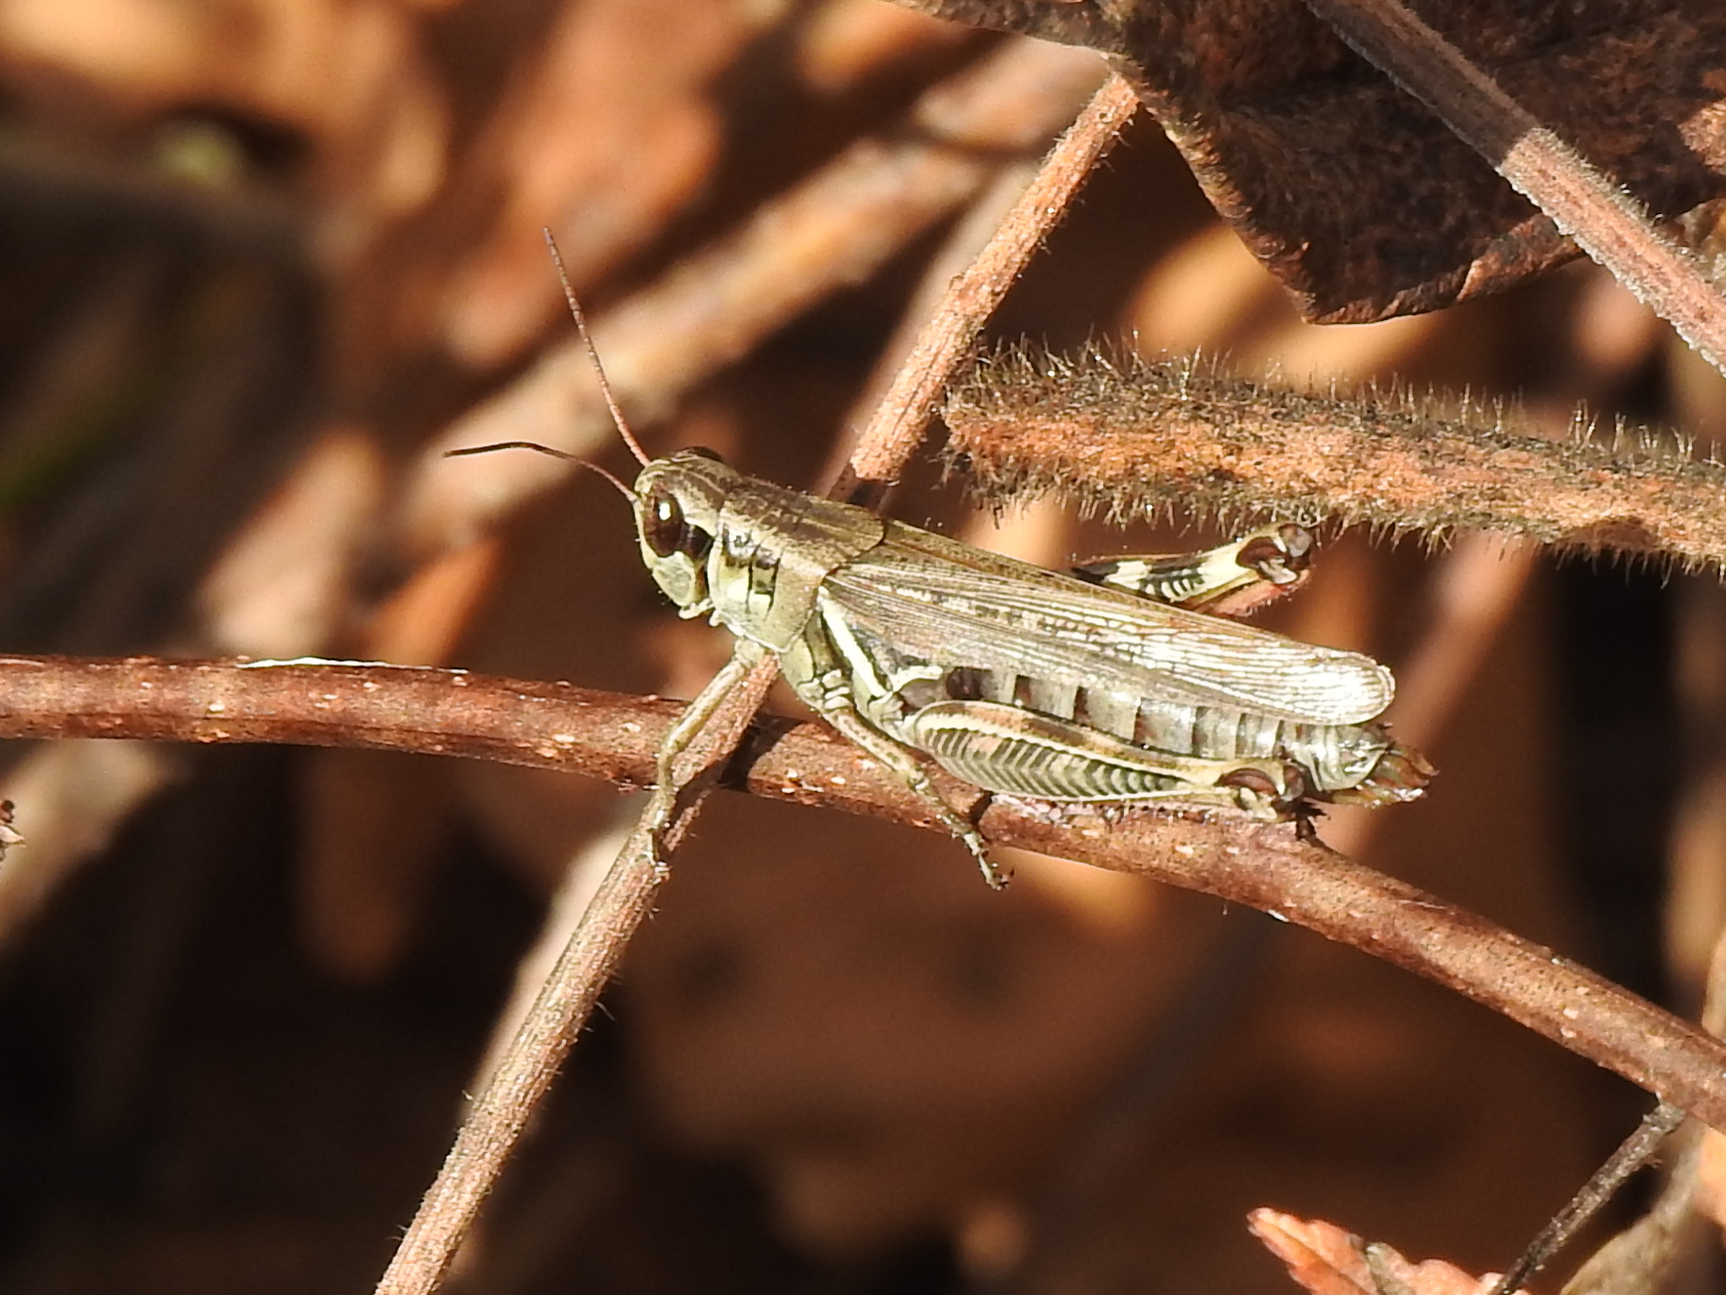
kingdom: Animalia
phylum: Arthropoda
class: Insecta
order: Orthoptera
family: Acrididae
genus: Melanoplus
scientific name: Melanoplus femurrubrum
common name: Red-legged grasshopper
